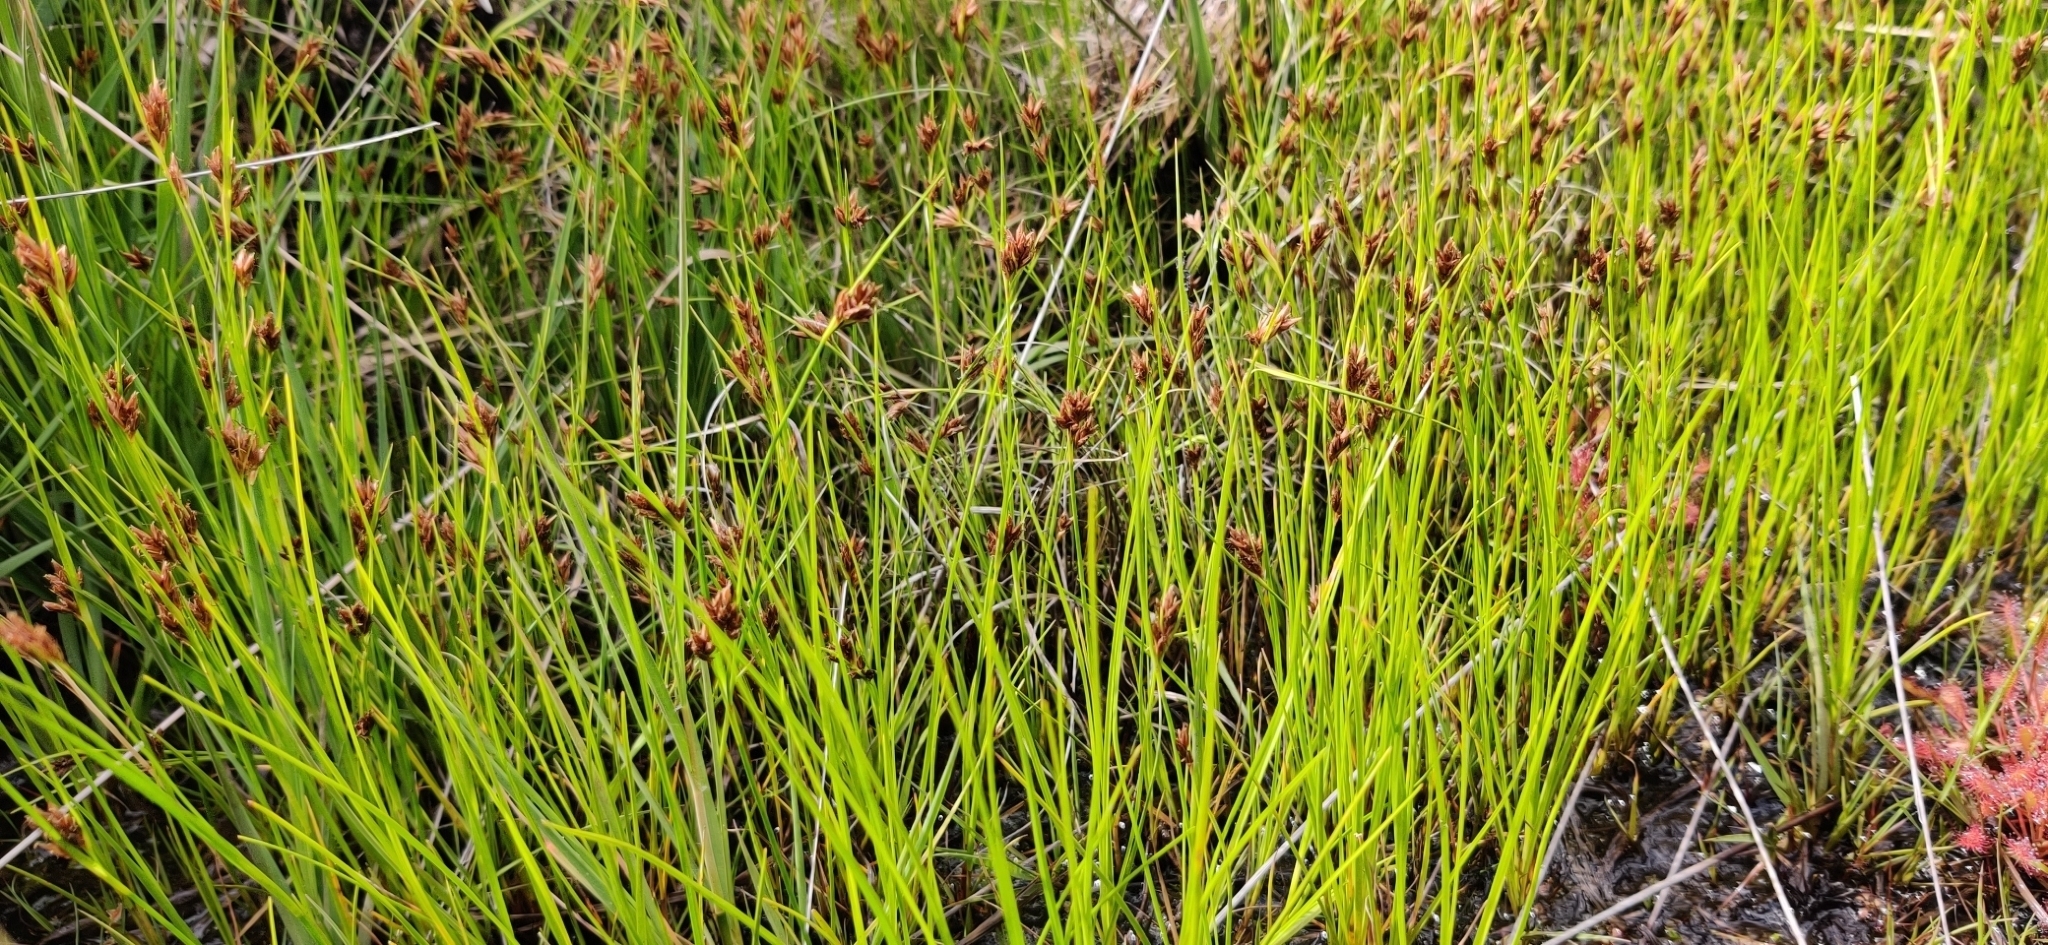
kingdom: Plantae
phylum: Tracheophyta
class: Liliopsida
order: Poales
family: Cyperaceae
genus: Rhynchospora
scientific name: Rhynchospora fusca
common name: Brown beak-sedge
